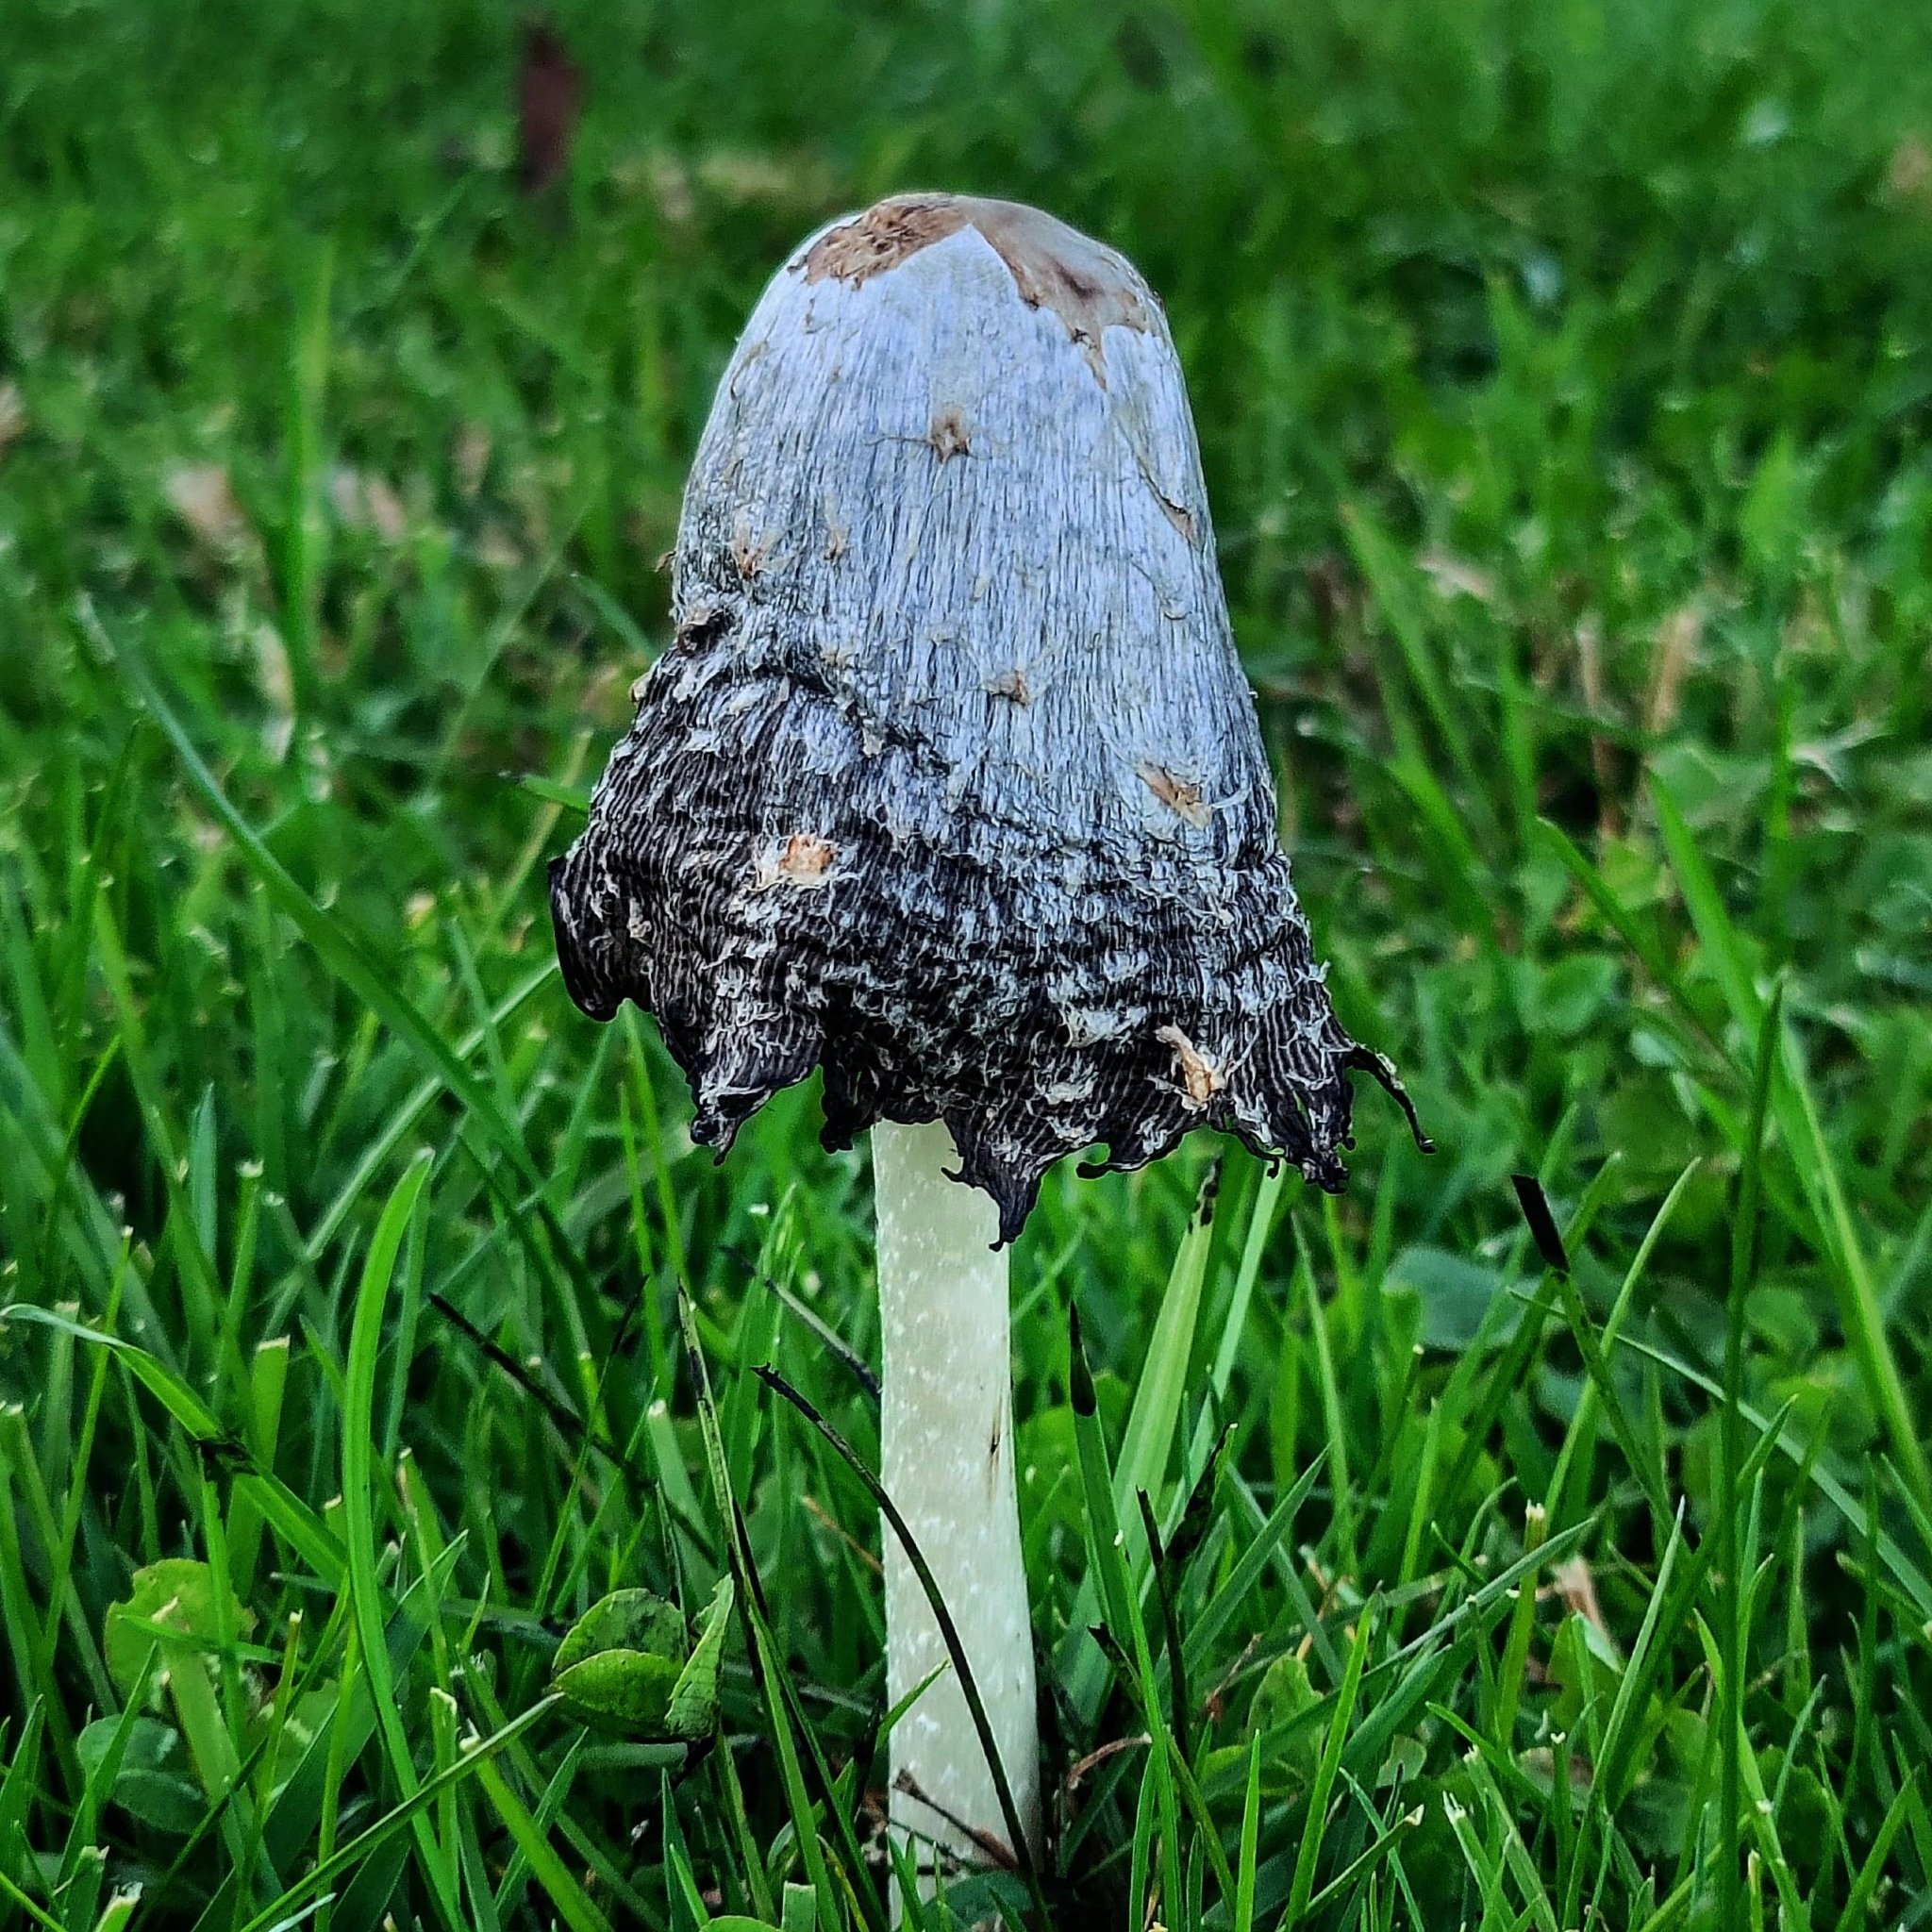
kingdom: Fungi
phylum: Basidiomycota
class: Agaricomycetes
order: Agaricales
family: Agaricaceae
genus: Coprinus
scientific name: Coprinus comatus
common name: Lawyer's wig
